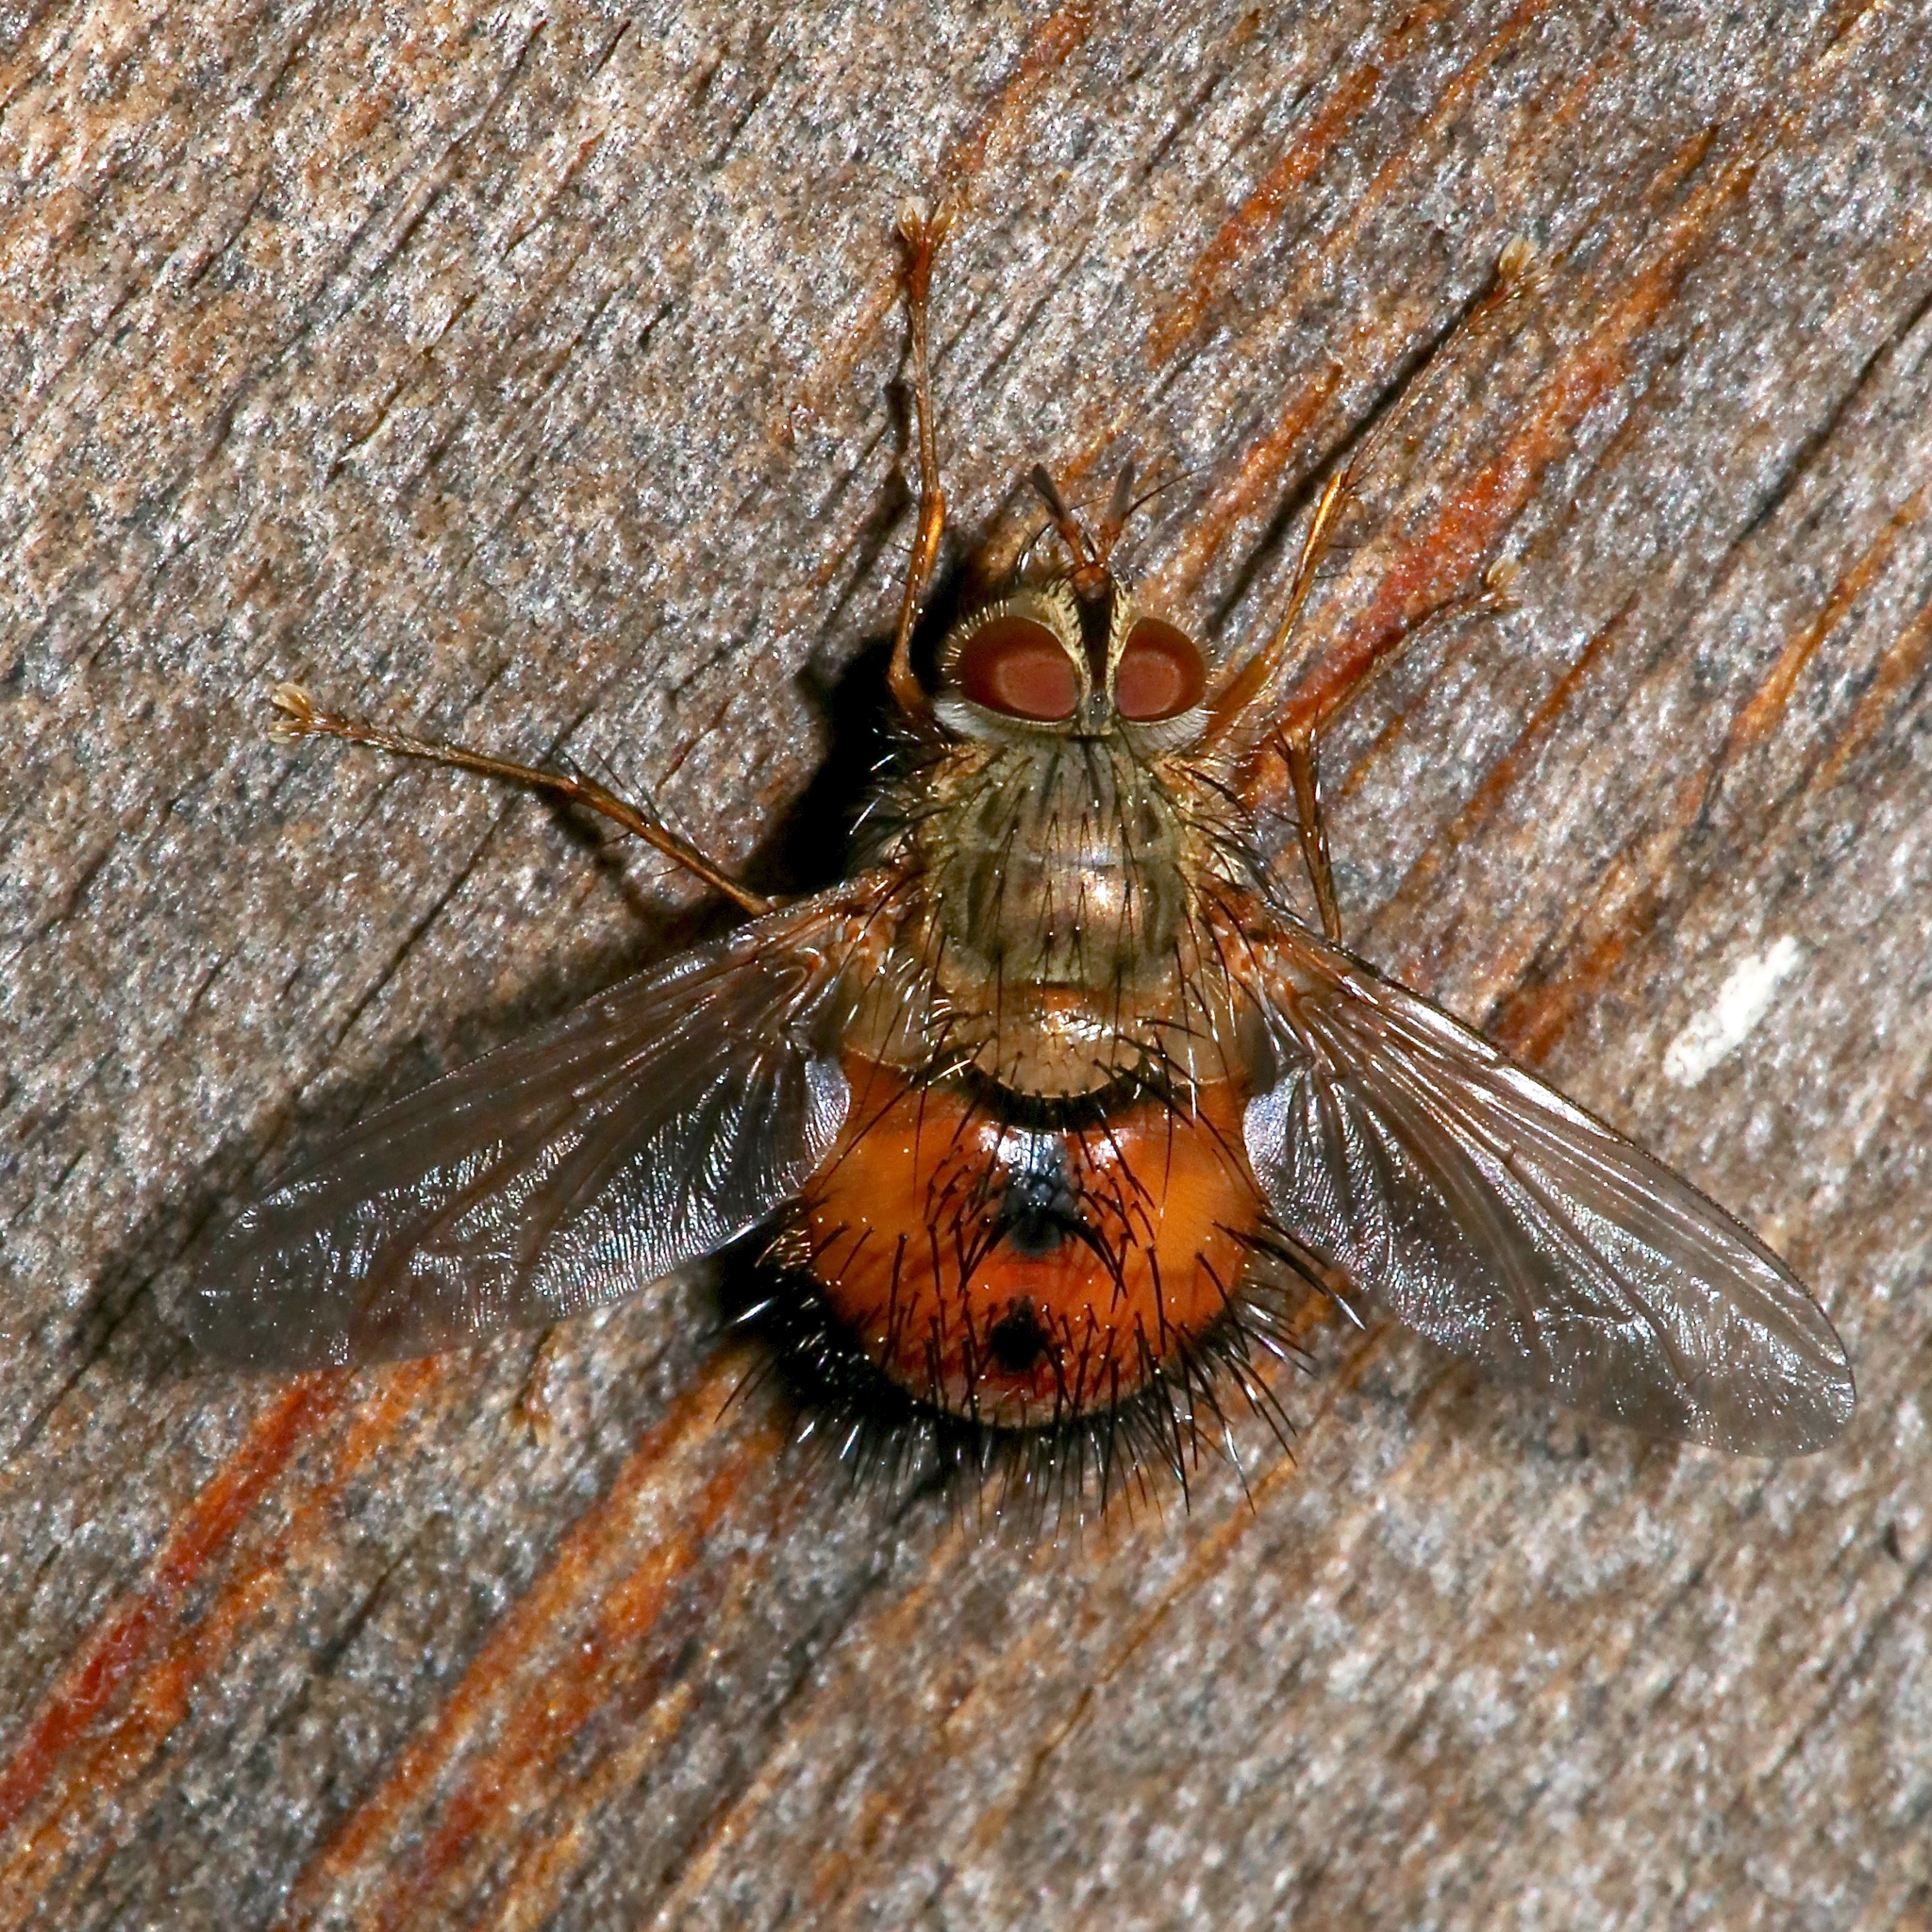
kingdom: Animalia
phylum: Arthropoda
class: Insecta
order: Diptera
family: Tachinidae
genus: Hystricia
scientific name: Hystricia abrupta
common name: Tomato bristle fly
